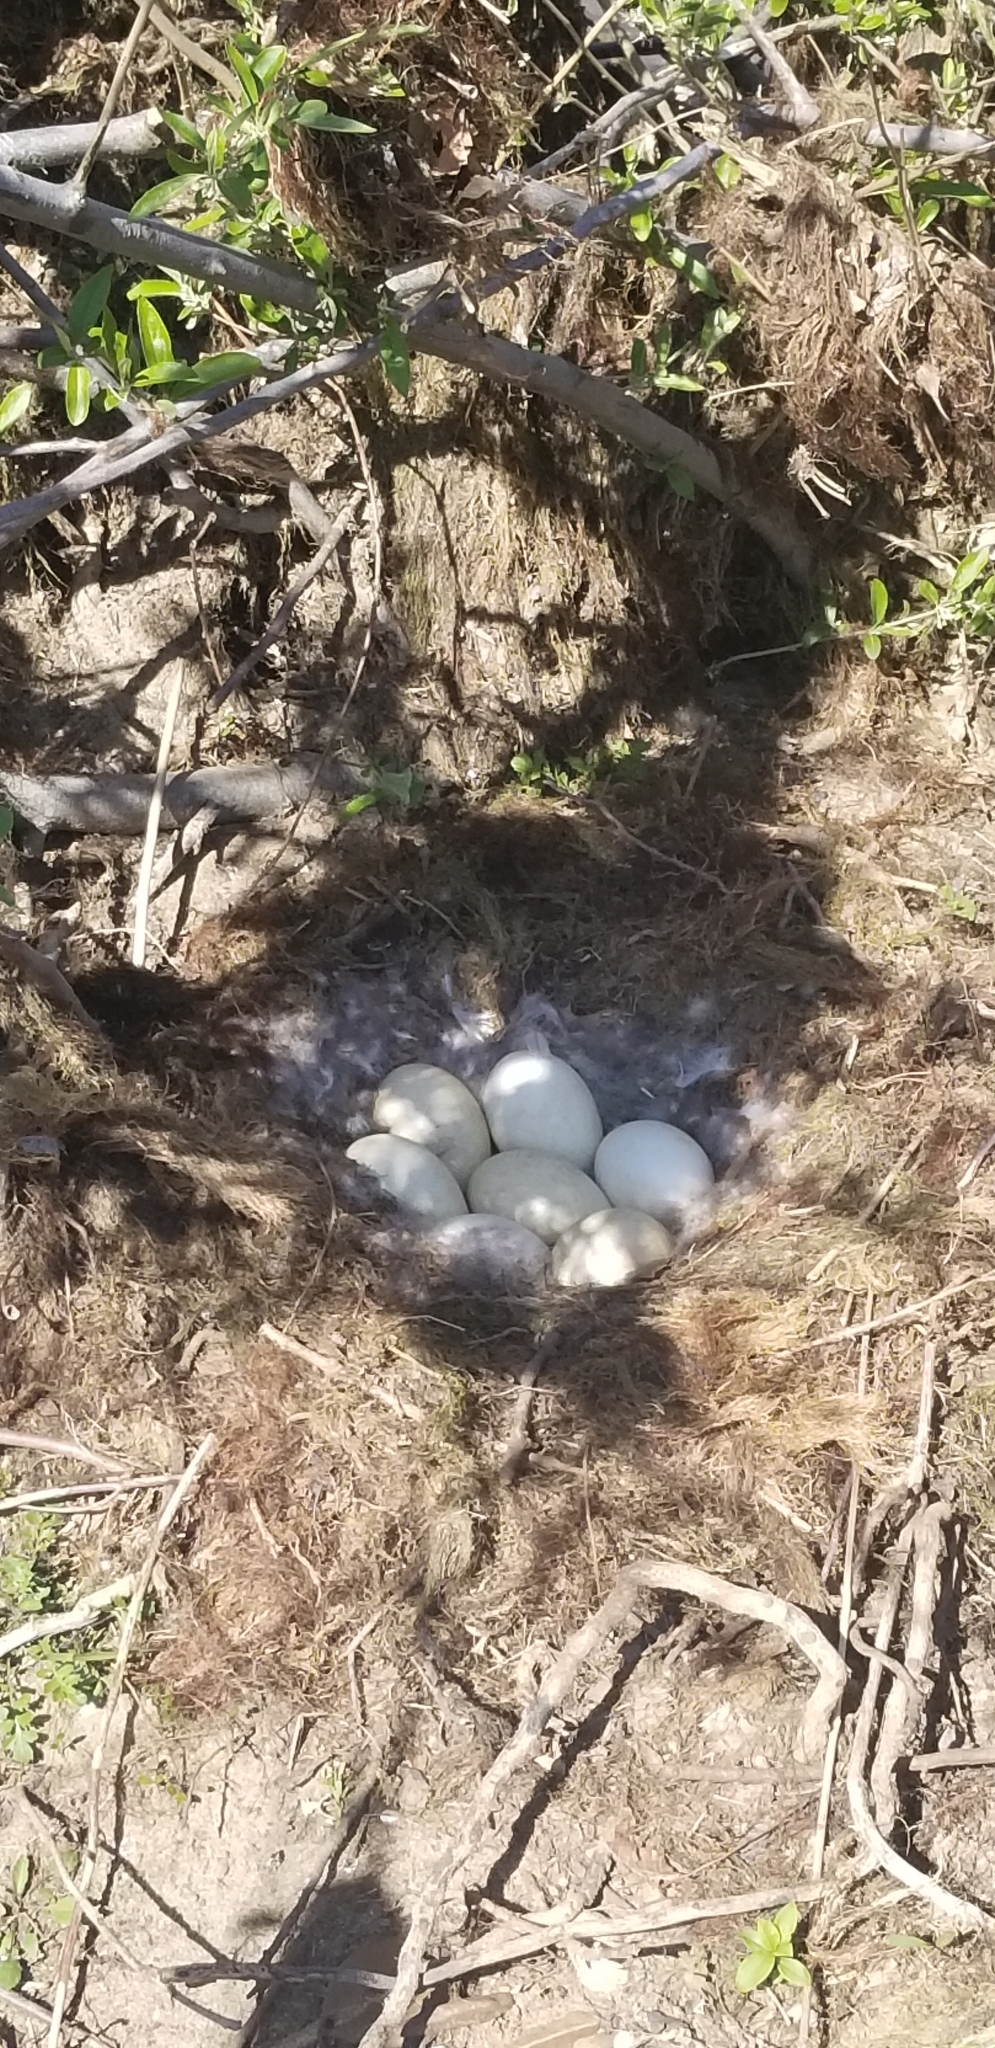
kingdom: Animalia
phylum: Chordata
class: Aves
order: Anseriformes
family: Anatidae
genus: Branta
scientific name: Branta canadensis
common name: Canada goose
